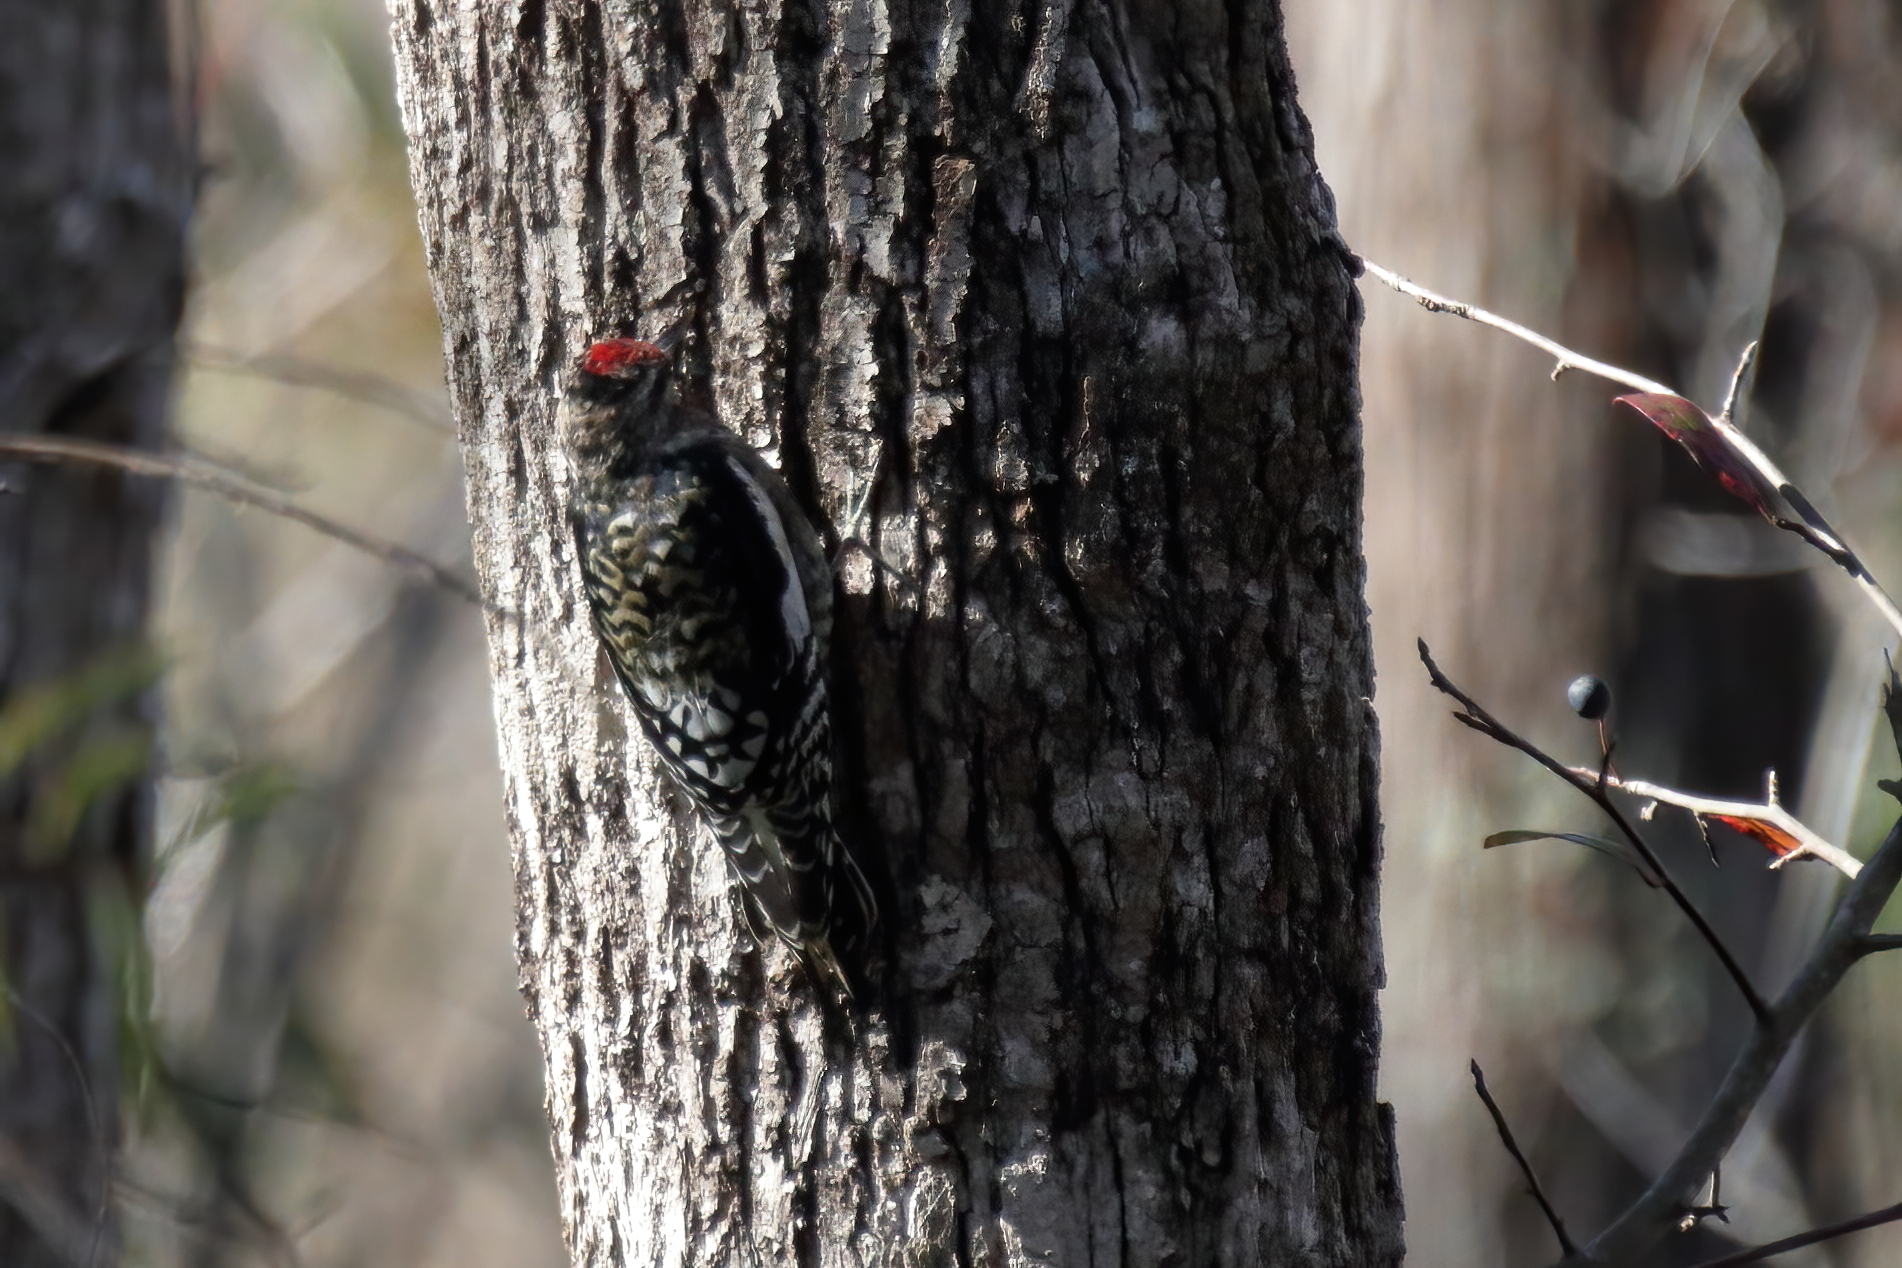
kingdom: Animalia
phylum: Chordata
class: Aves
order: Piciformes
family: Picidae
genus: Sphyrapicus
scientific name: Sphyrapicus varius
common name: Yellow-bellied sapsucker
